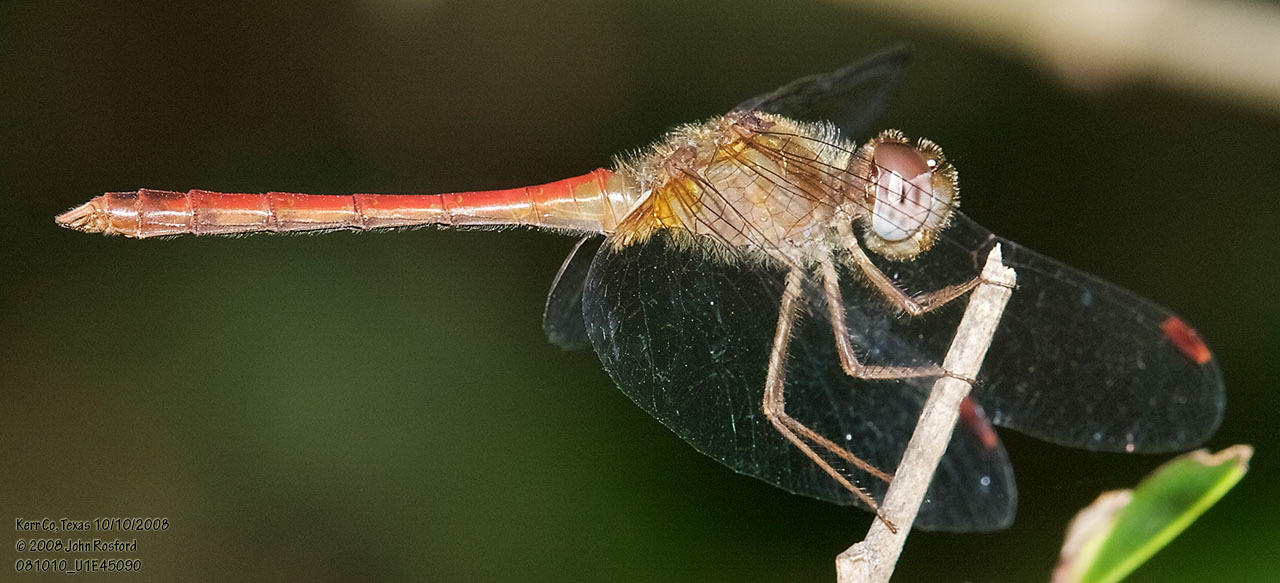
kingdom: Animalia
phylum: Arthropoda
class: Insecta
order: Odonata
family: Libellulidae
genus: Sympetrum
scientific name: Sympetrum vicinum
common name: Autumn meadowhawk
